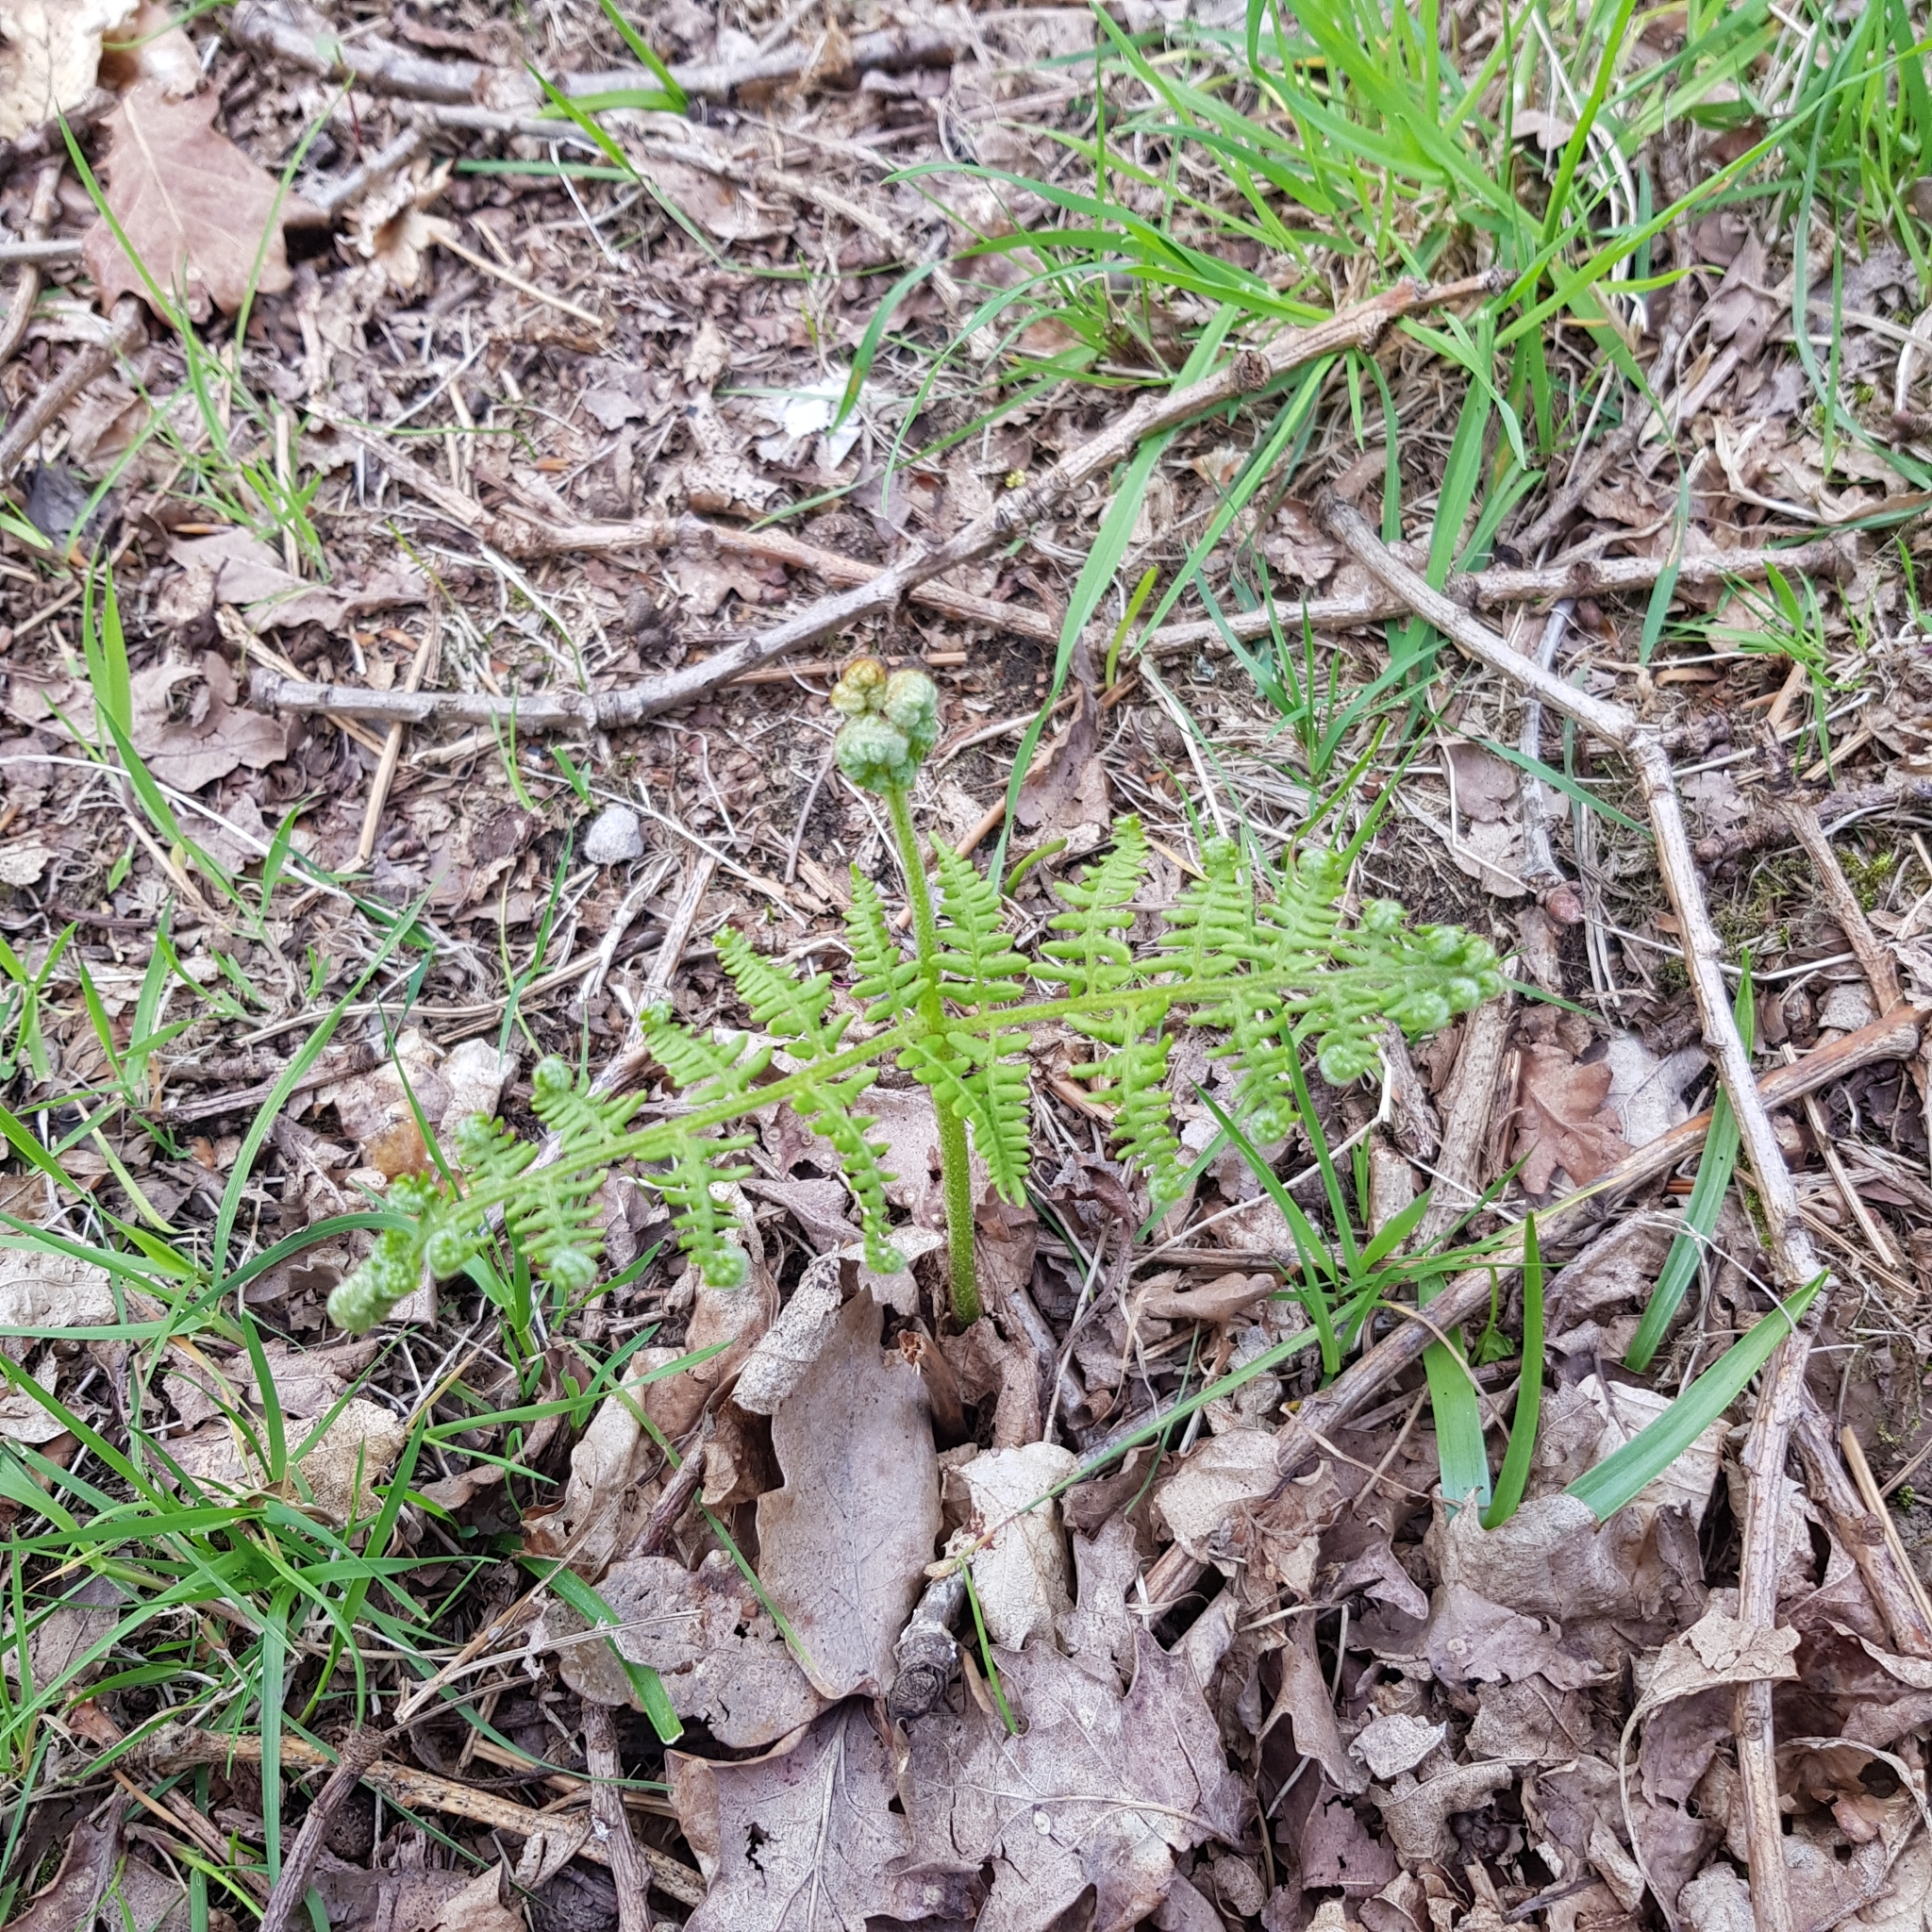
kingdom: Plantae
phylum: Tracheophyta
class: Polypodiopsida
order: Polypodiales
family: Dennstaedtiaceae
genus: Pteridium
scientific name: Pteridium aquilinum
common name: Bracken
